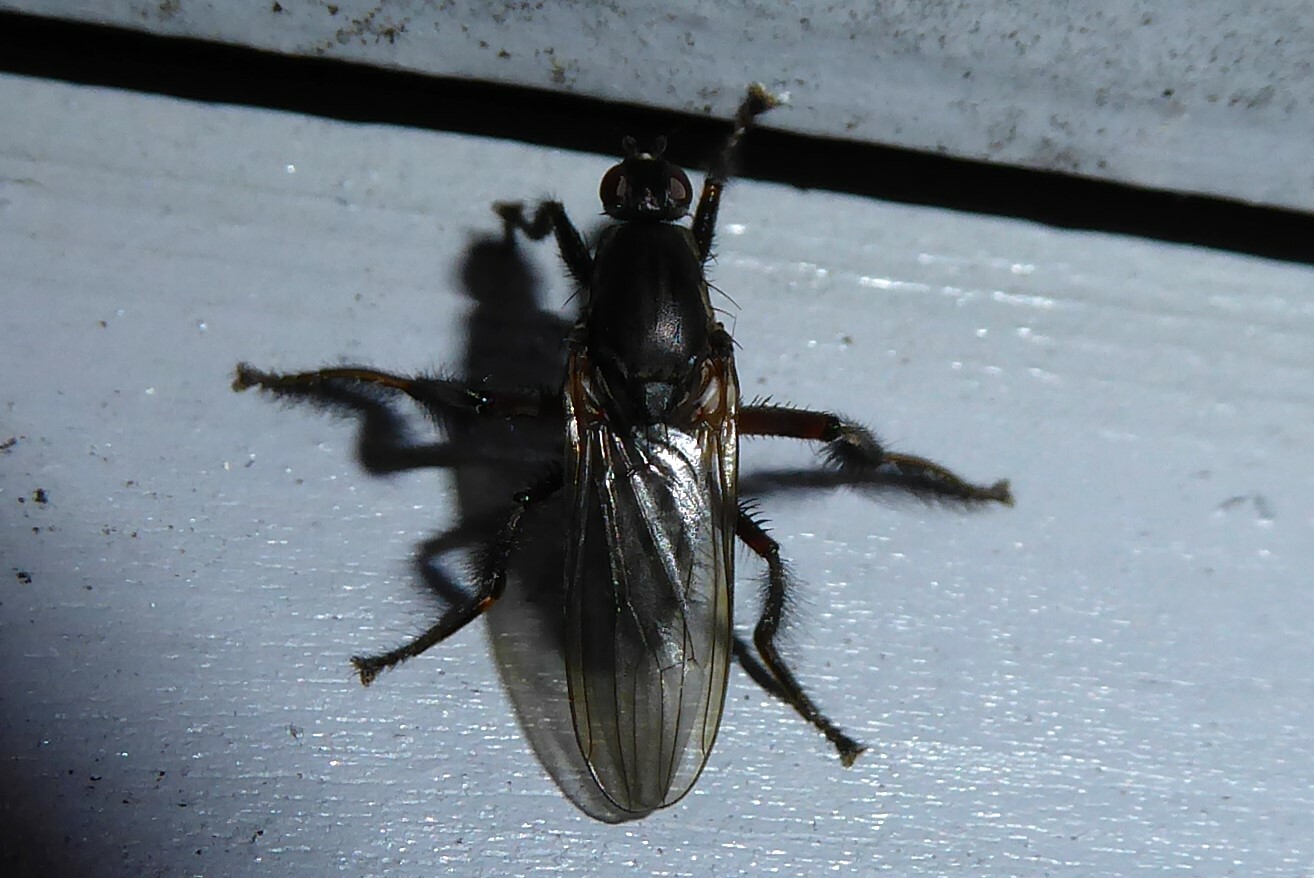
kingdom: Animalia
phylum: Arthropoda
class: Insecta
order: Diptera
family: Coelopidae
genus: Chaetocoelopa
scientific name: Chaetocoelopa littoralis
